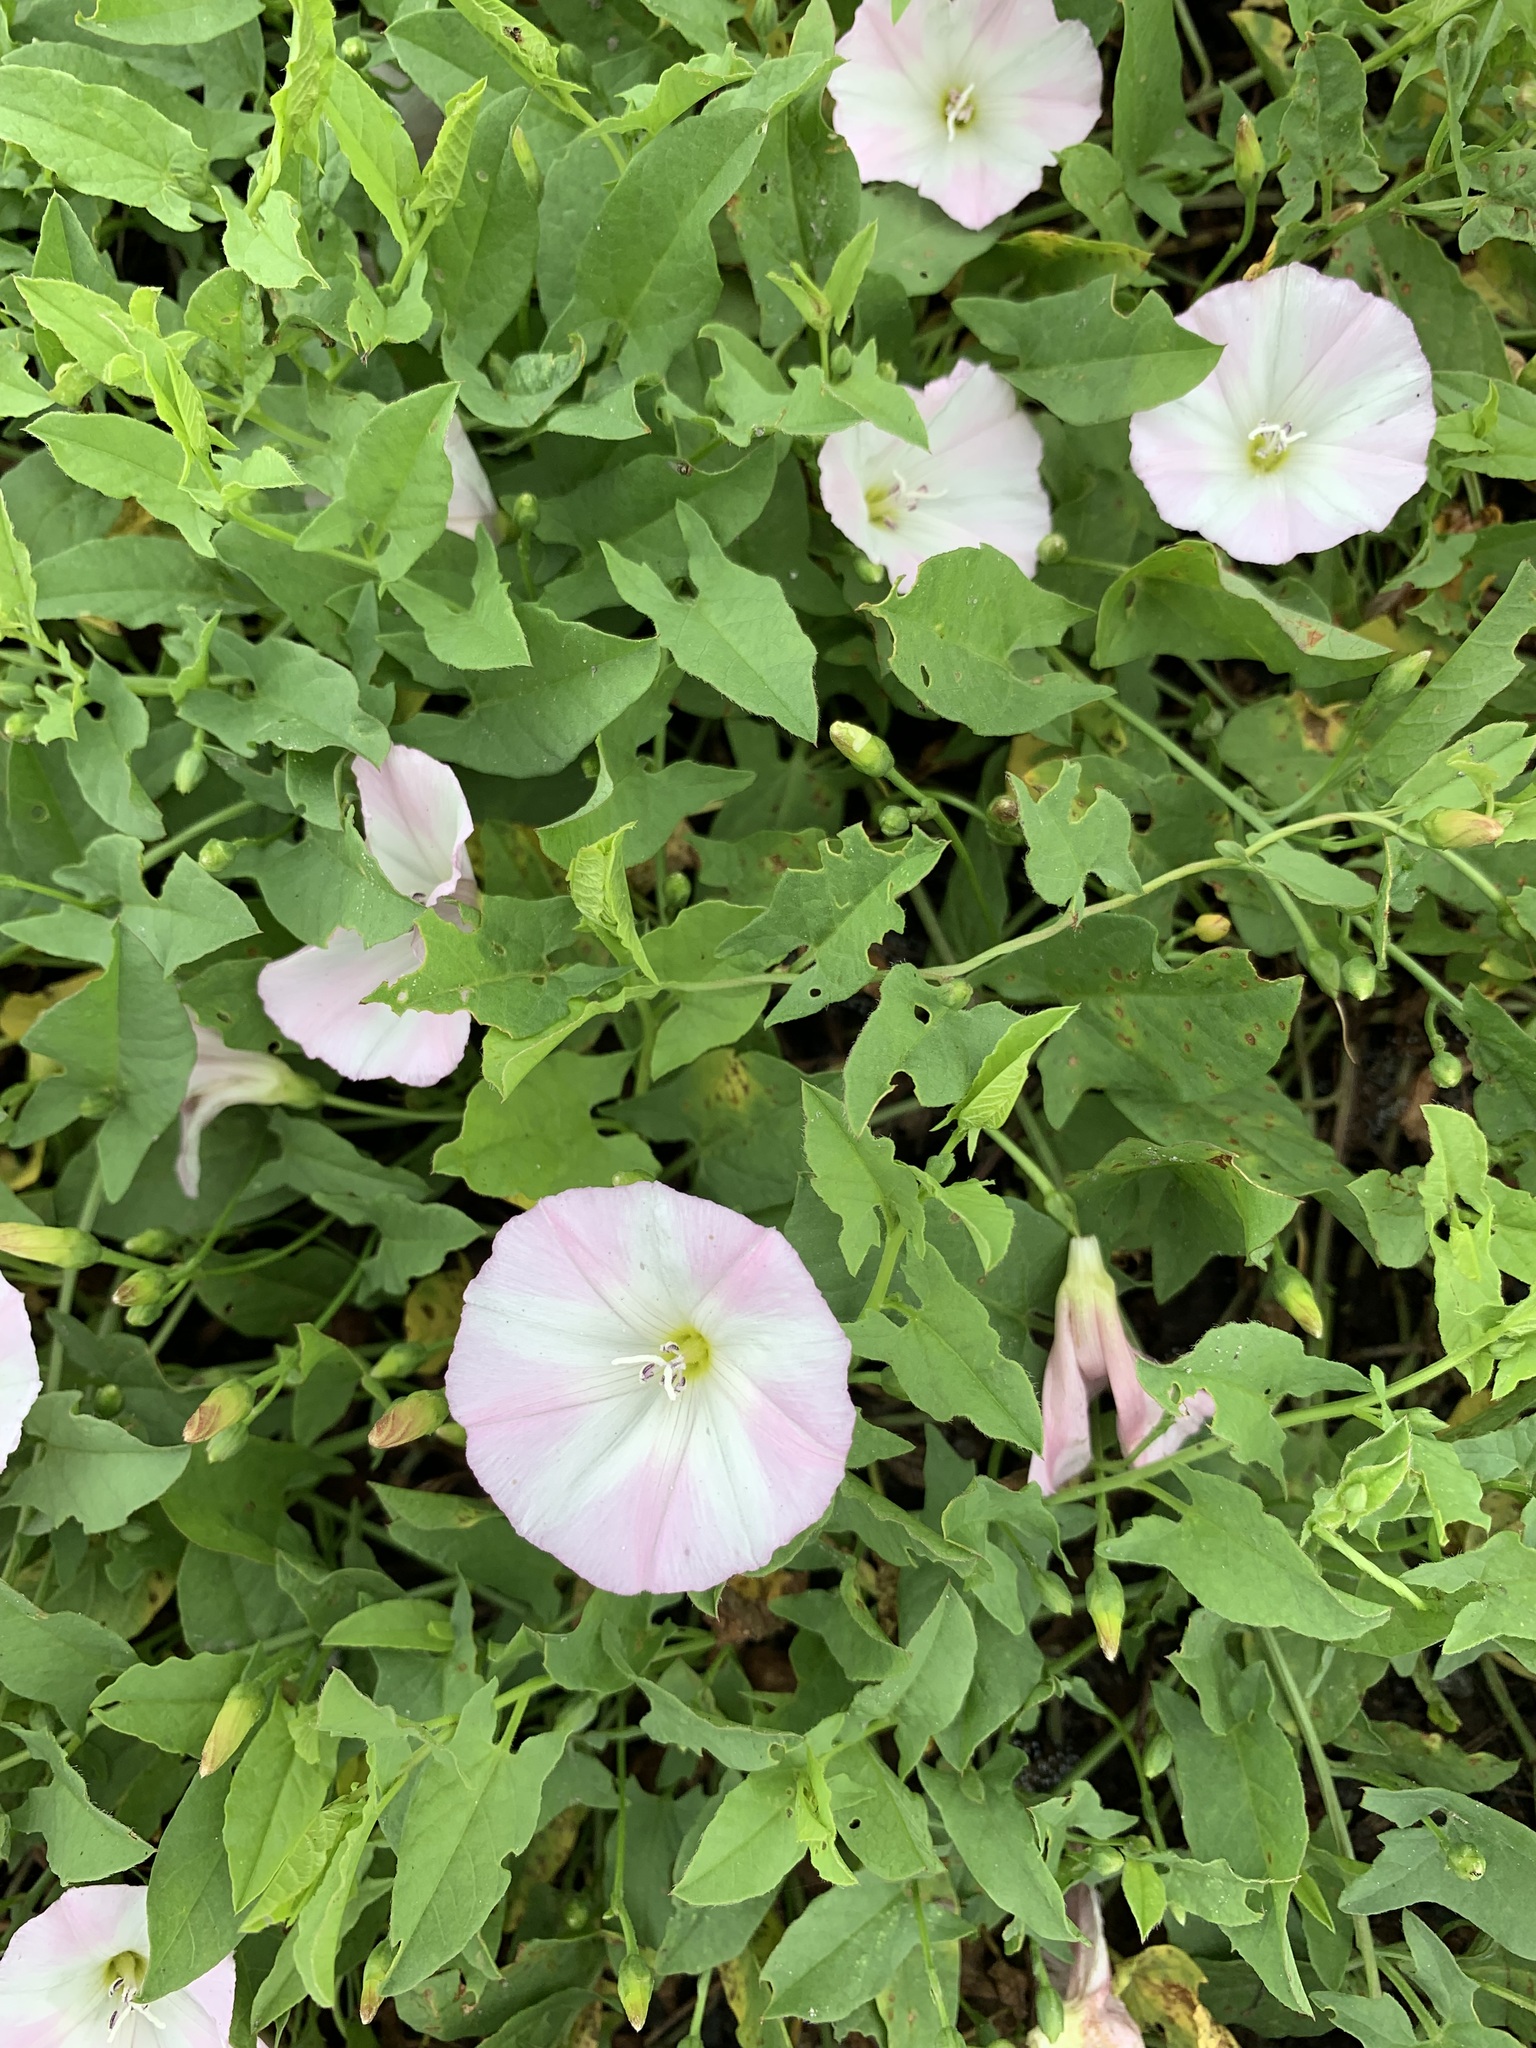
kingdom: Plantae
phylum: Tracheophyta
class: Magnoliopsida
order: Solanales
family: Convolvulaceae
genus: Convolvulus
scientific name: Convolvulus arvensis
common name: Field bindweed
